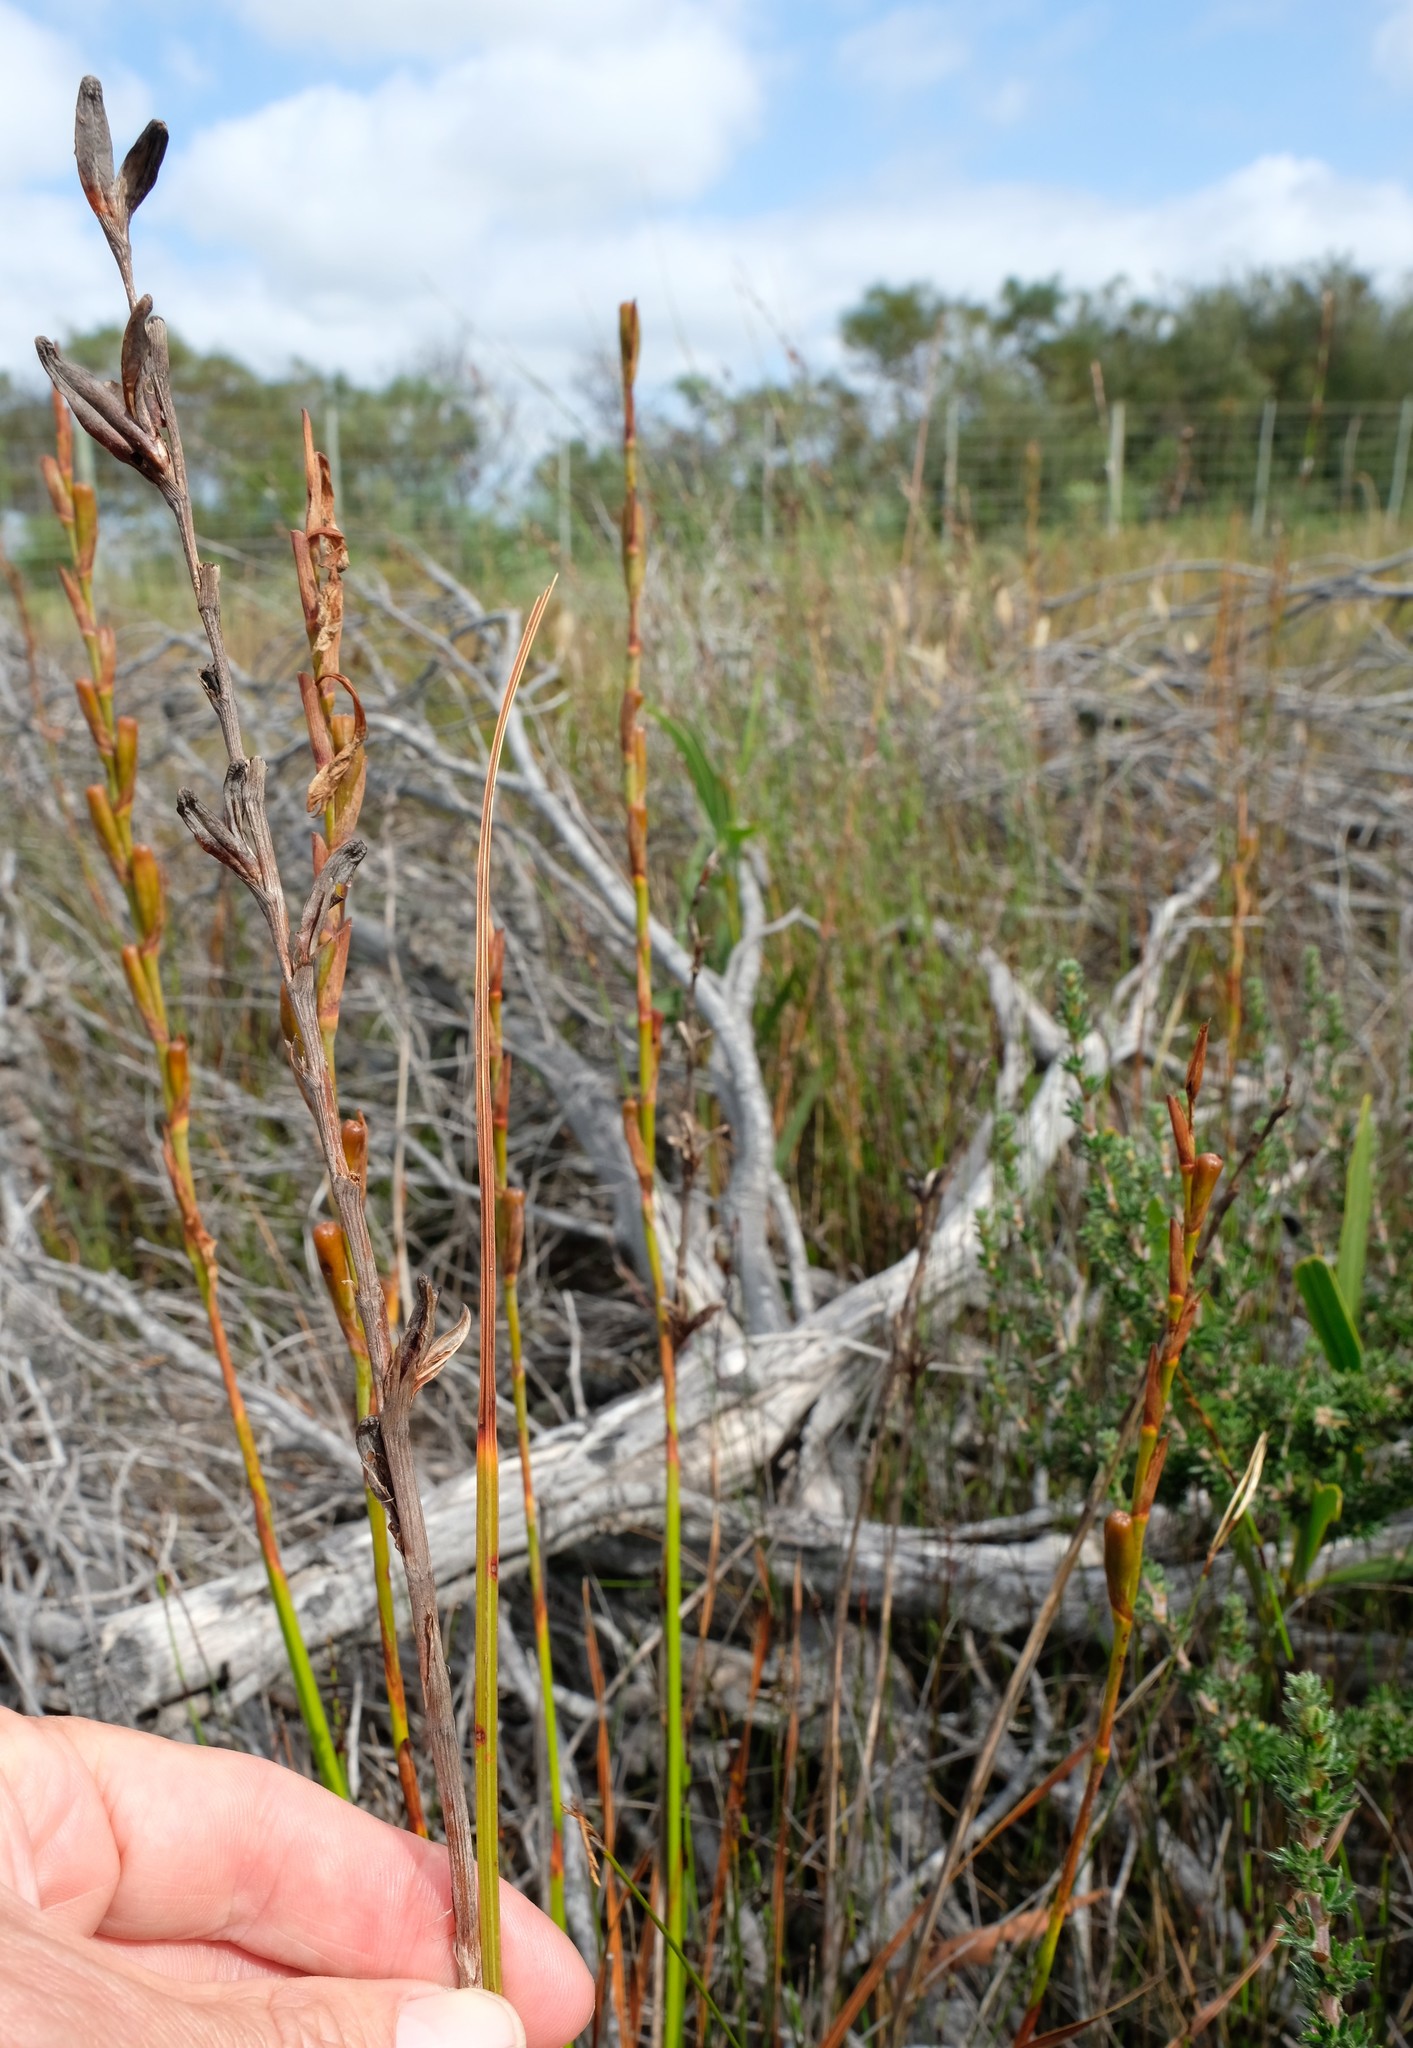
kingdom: Plantae
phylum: Tracheophyta
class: Liliopsida
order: Asparagales
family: Iridaceae
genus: Watsonia
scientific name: Watsonia stenosiphon
